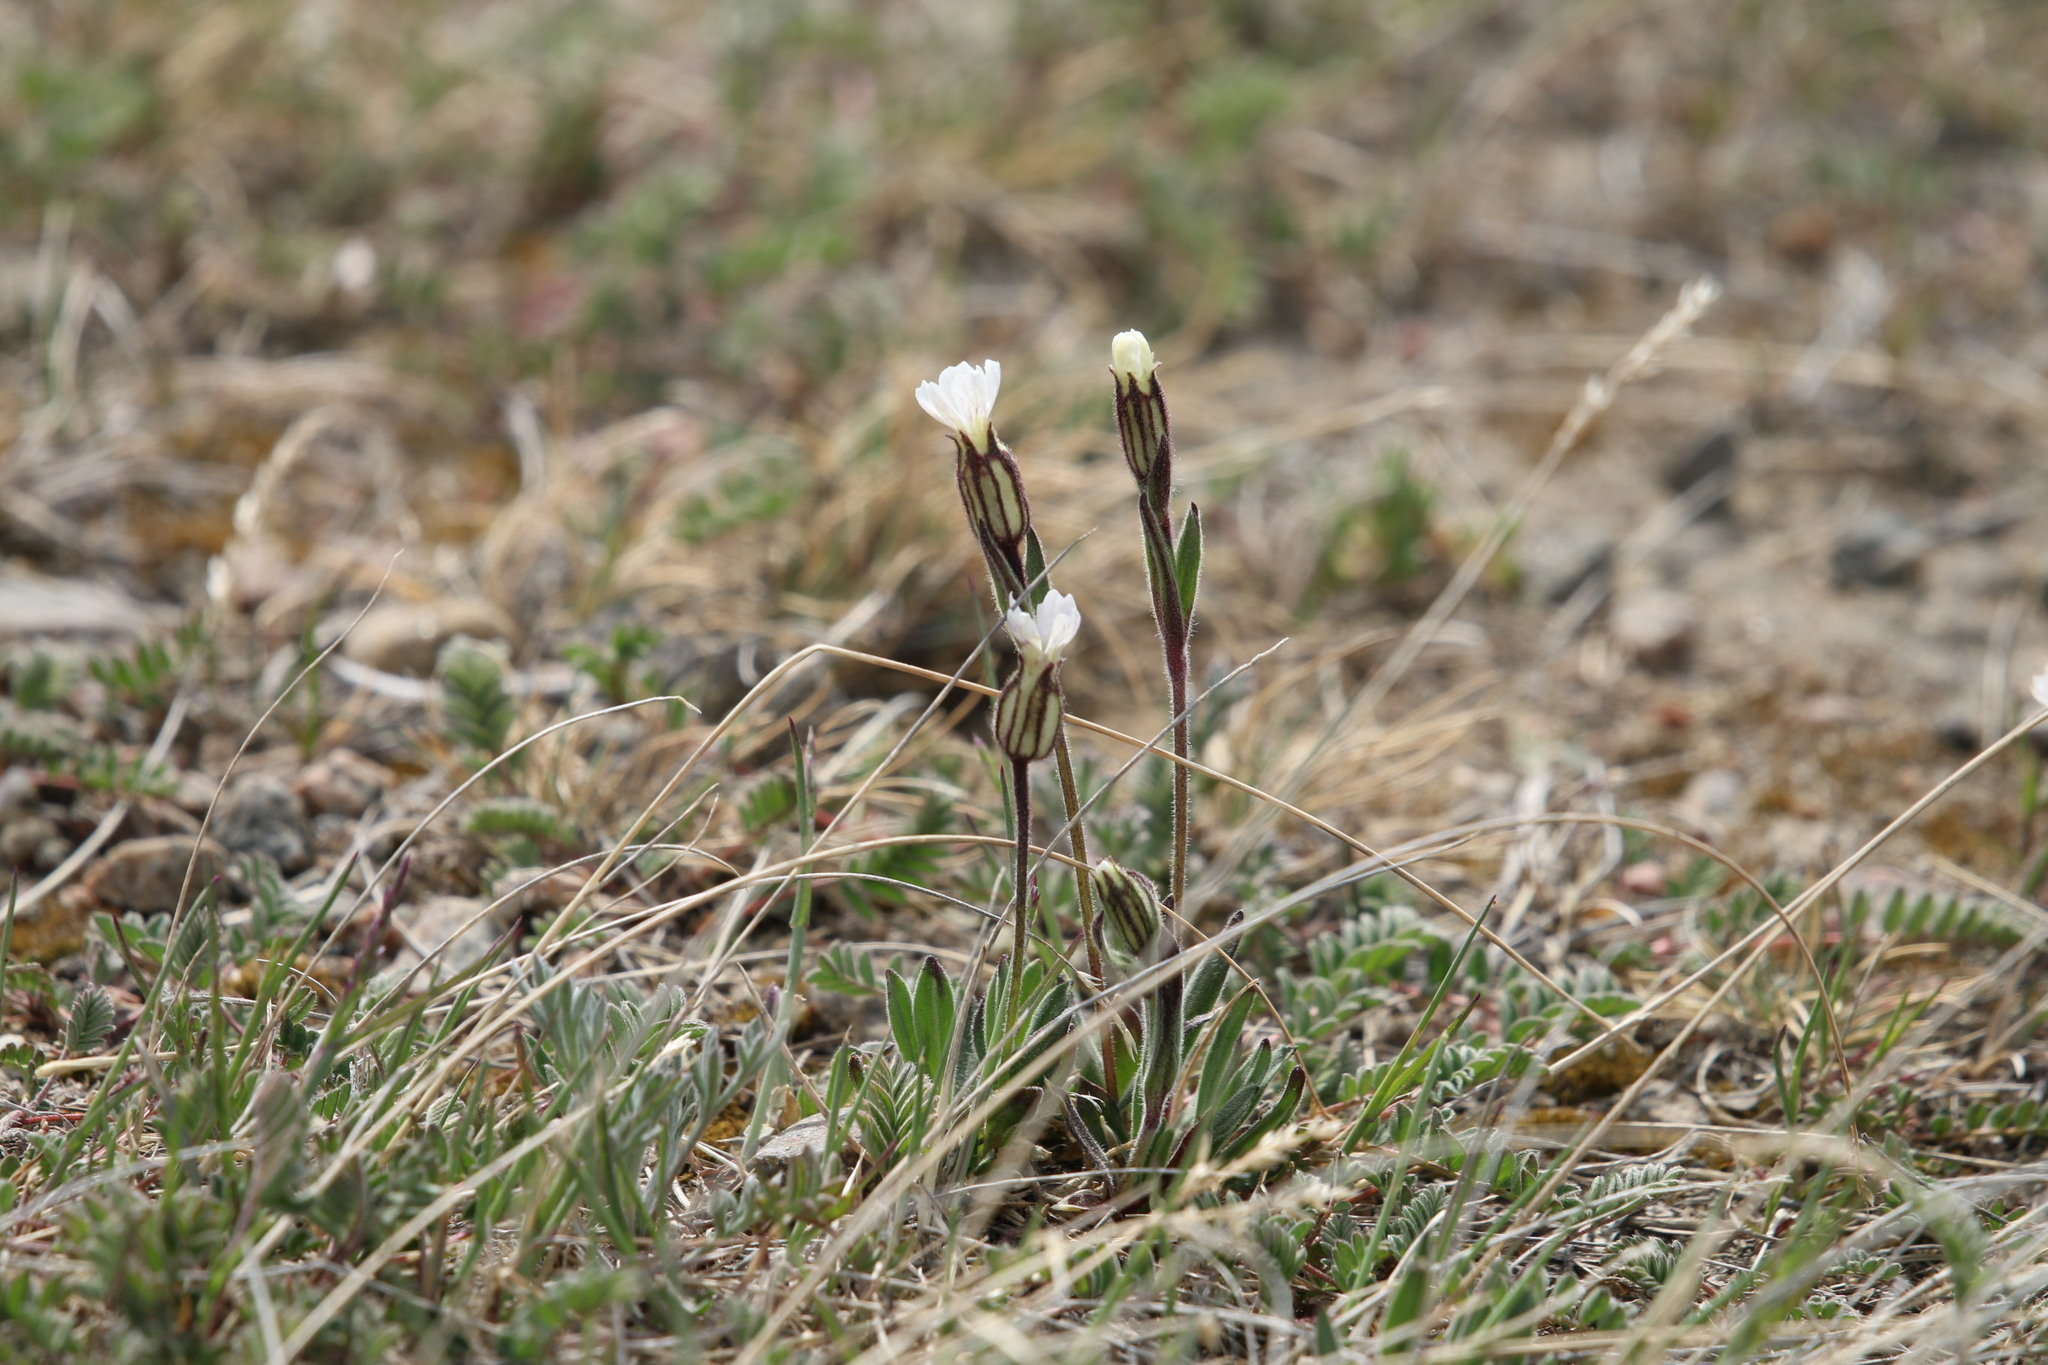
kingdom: Plantae
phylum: Tracheophyta
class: Magnoliopsida
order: Caryophyllales
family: Caryophyllaceae
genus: Silene
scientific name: Silene involucrata
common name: Greater arctic campion
